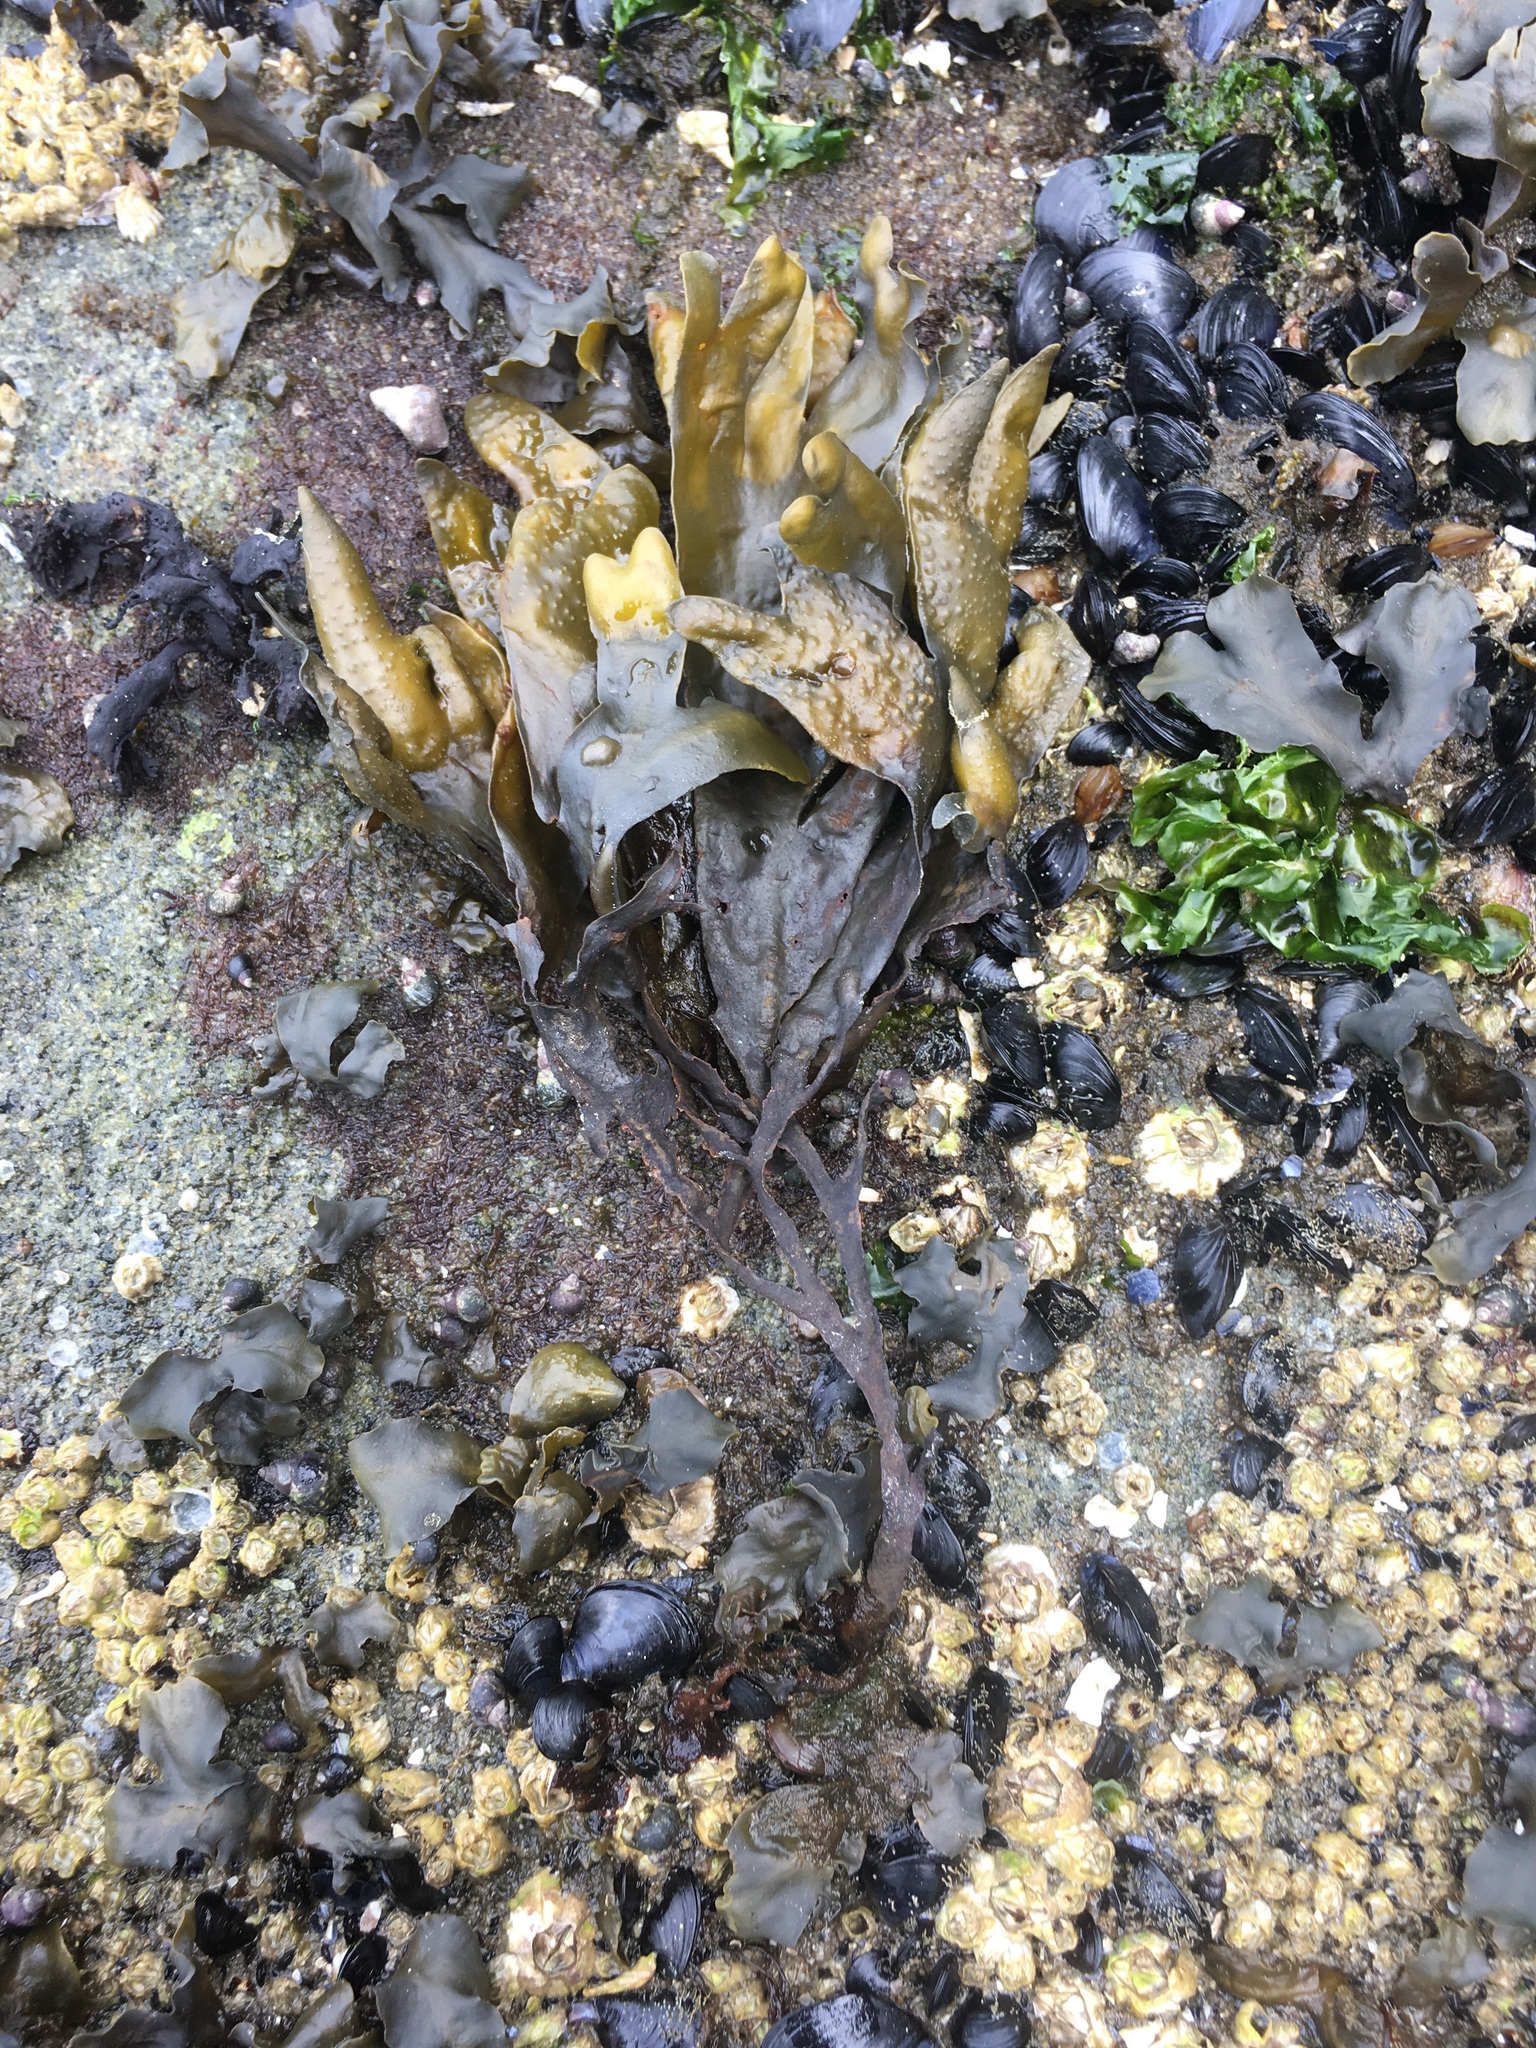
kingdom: Chromista
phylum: Ochrophyta
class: Phaeophyceae
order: Fucales
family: Fucaceae
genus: Fucus
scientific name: Fucus distichus
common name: Rockweed
